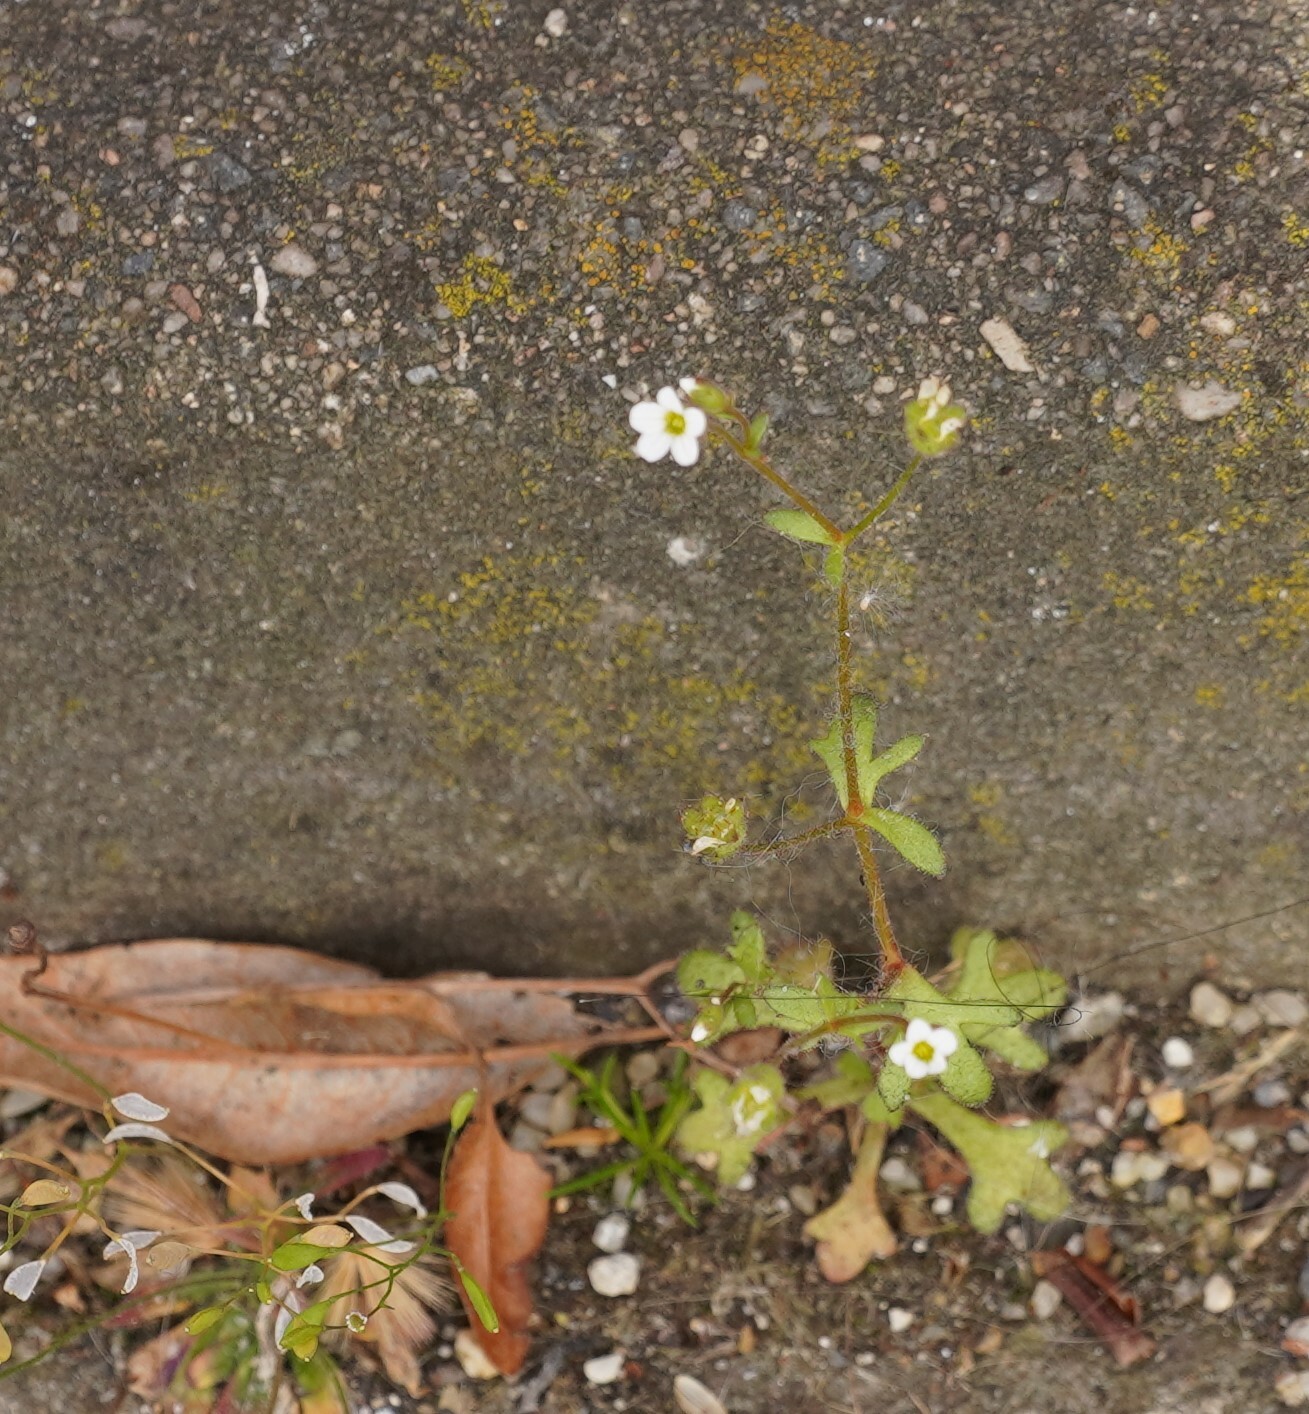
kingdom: Plantae
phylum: Tracheophyta
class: Magnoliopsida
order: Saxifragales
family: Saxifragaceae
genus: Saxifraga
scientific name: Saxifraga tridactylites
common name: Rue-leaved saxifrage
